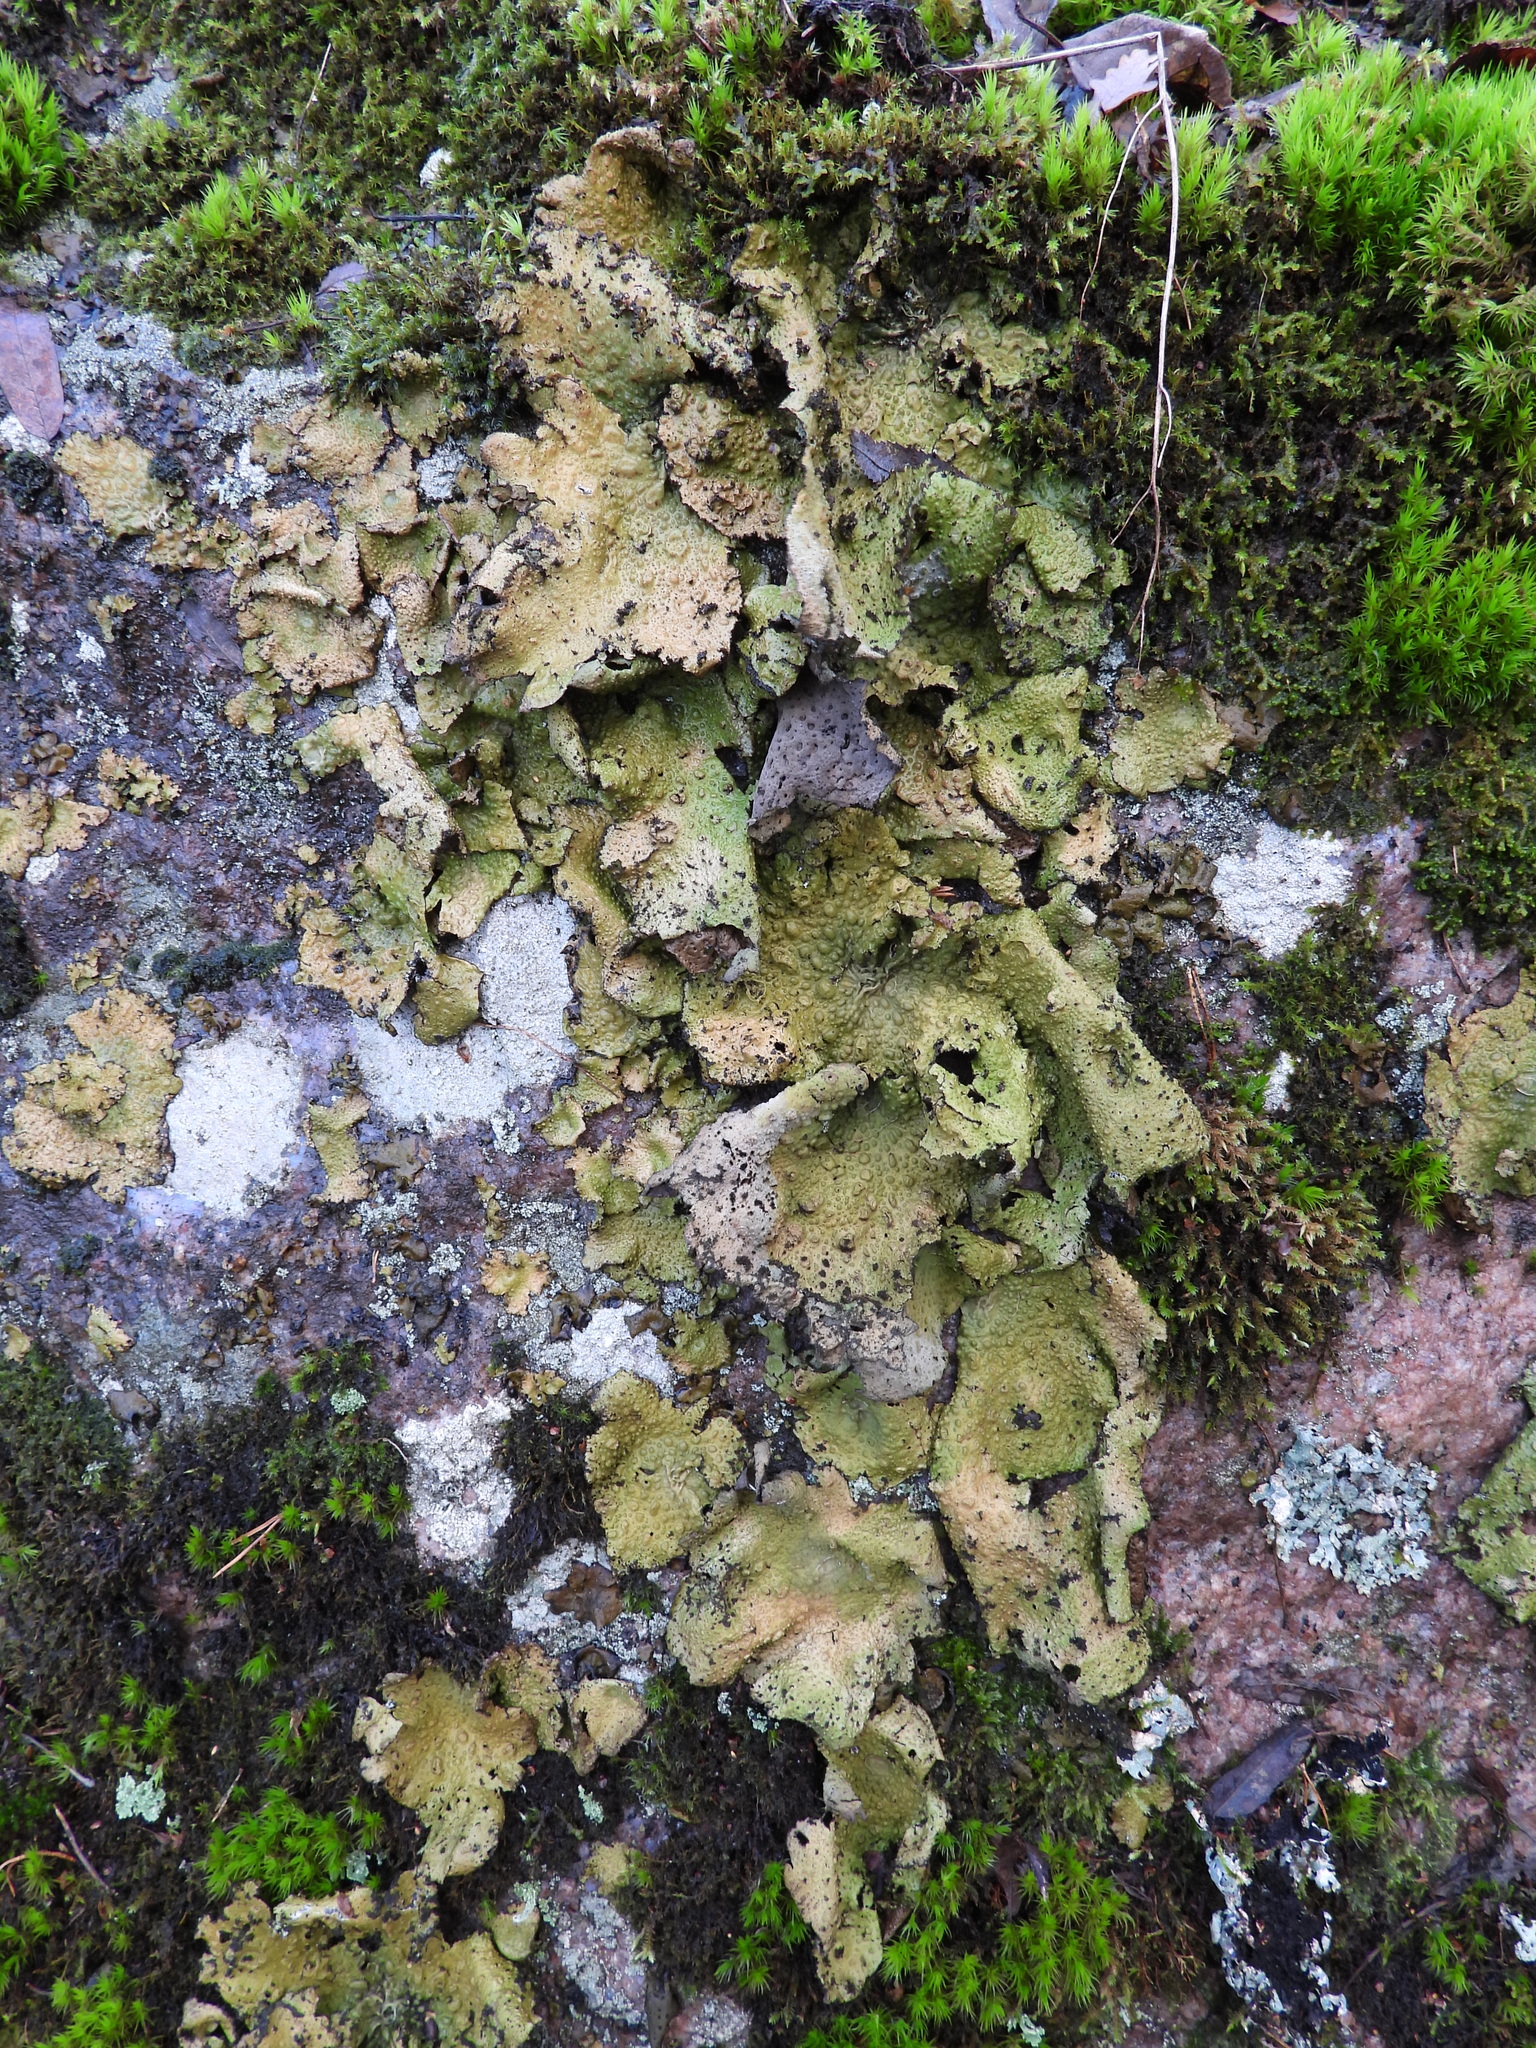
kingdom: Fungi
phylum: Ascomycota
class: Lecanoromycetes
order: Umbilicariales
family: Umbilicariaceae
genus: Lasallia
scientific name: Lasallia pustulata
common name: Blistered toadskin lichen
